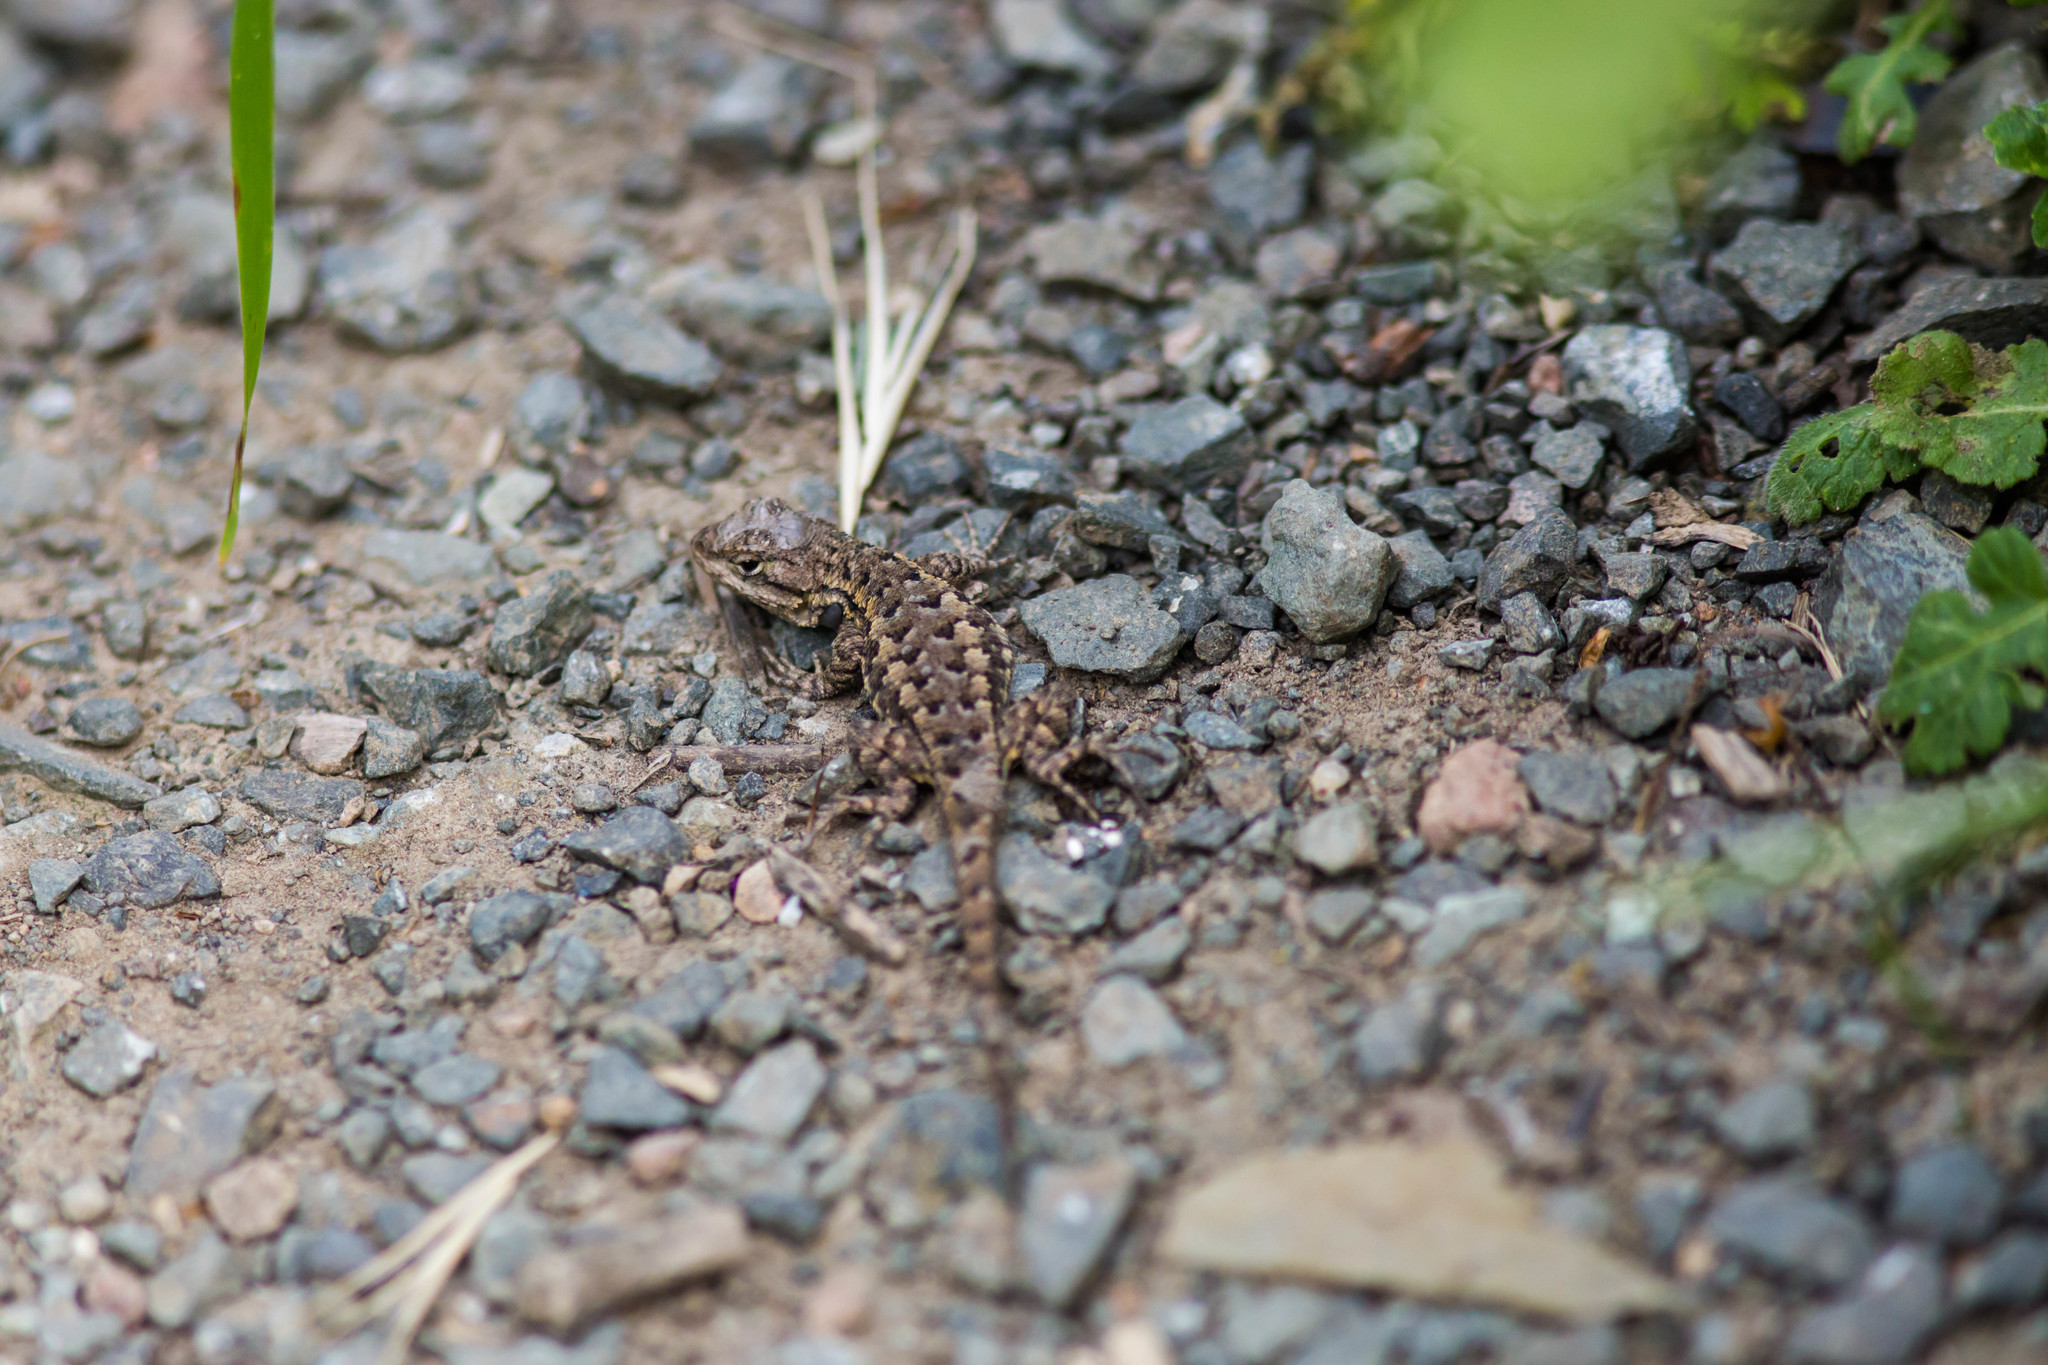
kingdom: Animalia
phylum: Chordata
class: Squamata
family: Phrynosomatidae
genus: Sceloporus
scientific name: Sceloporus occidentalis
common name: Western fence lizard
